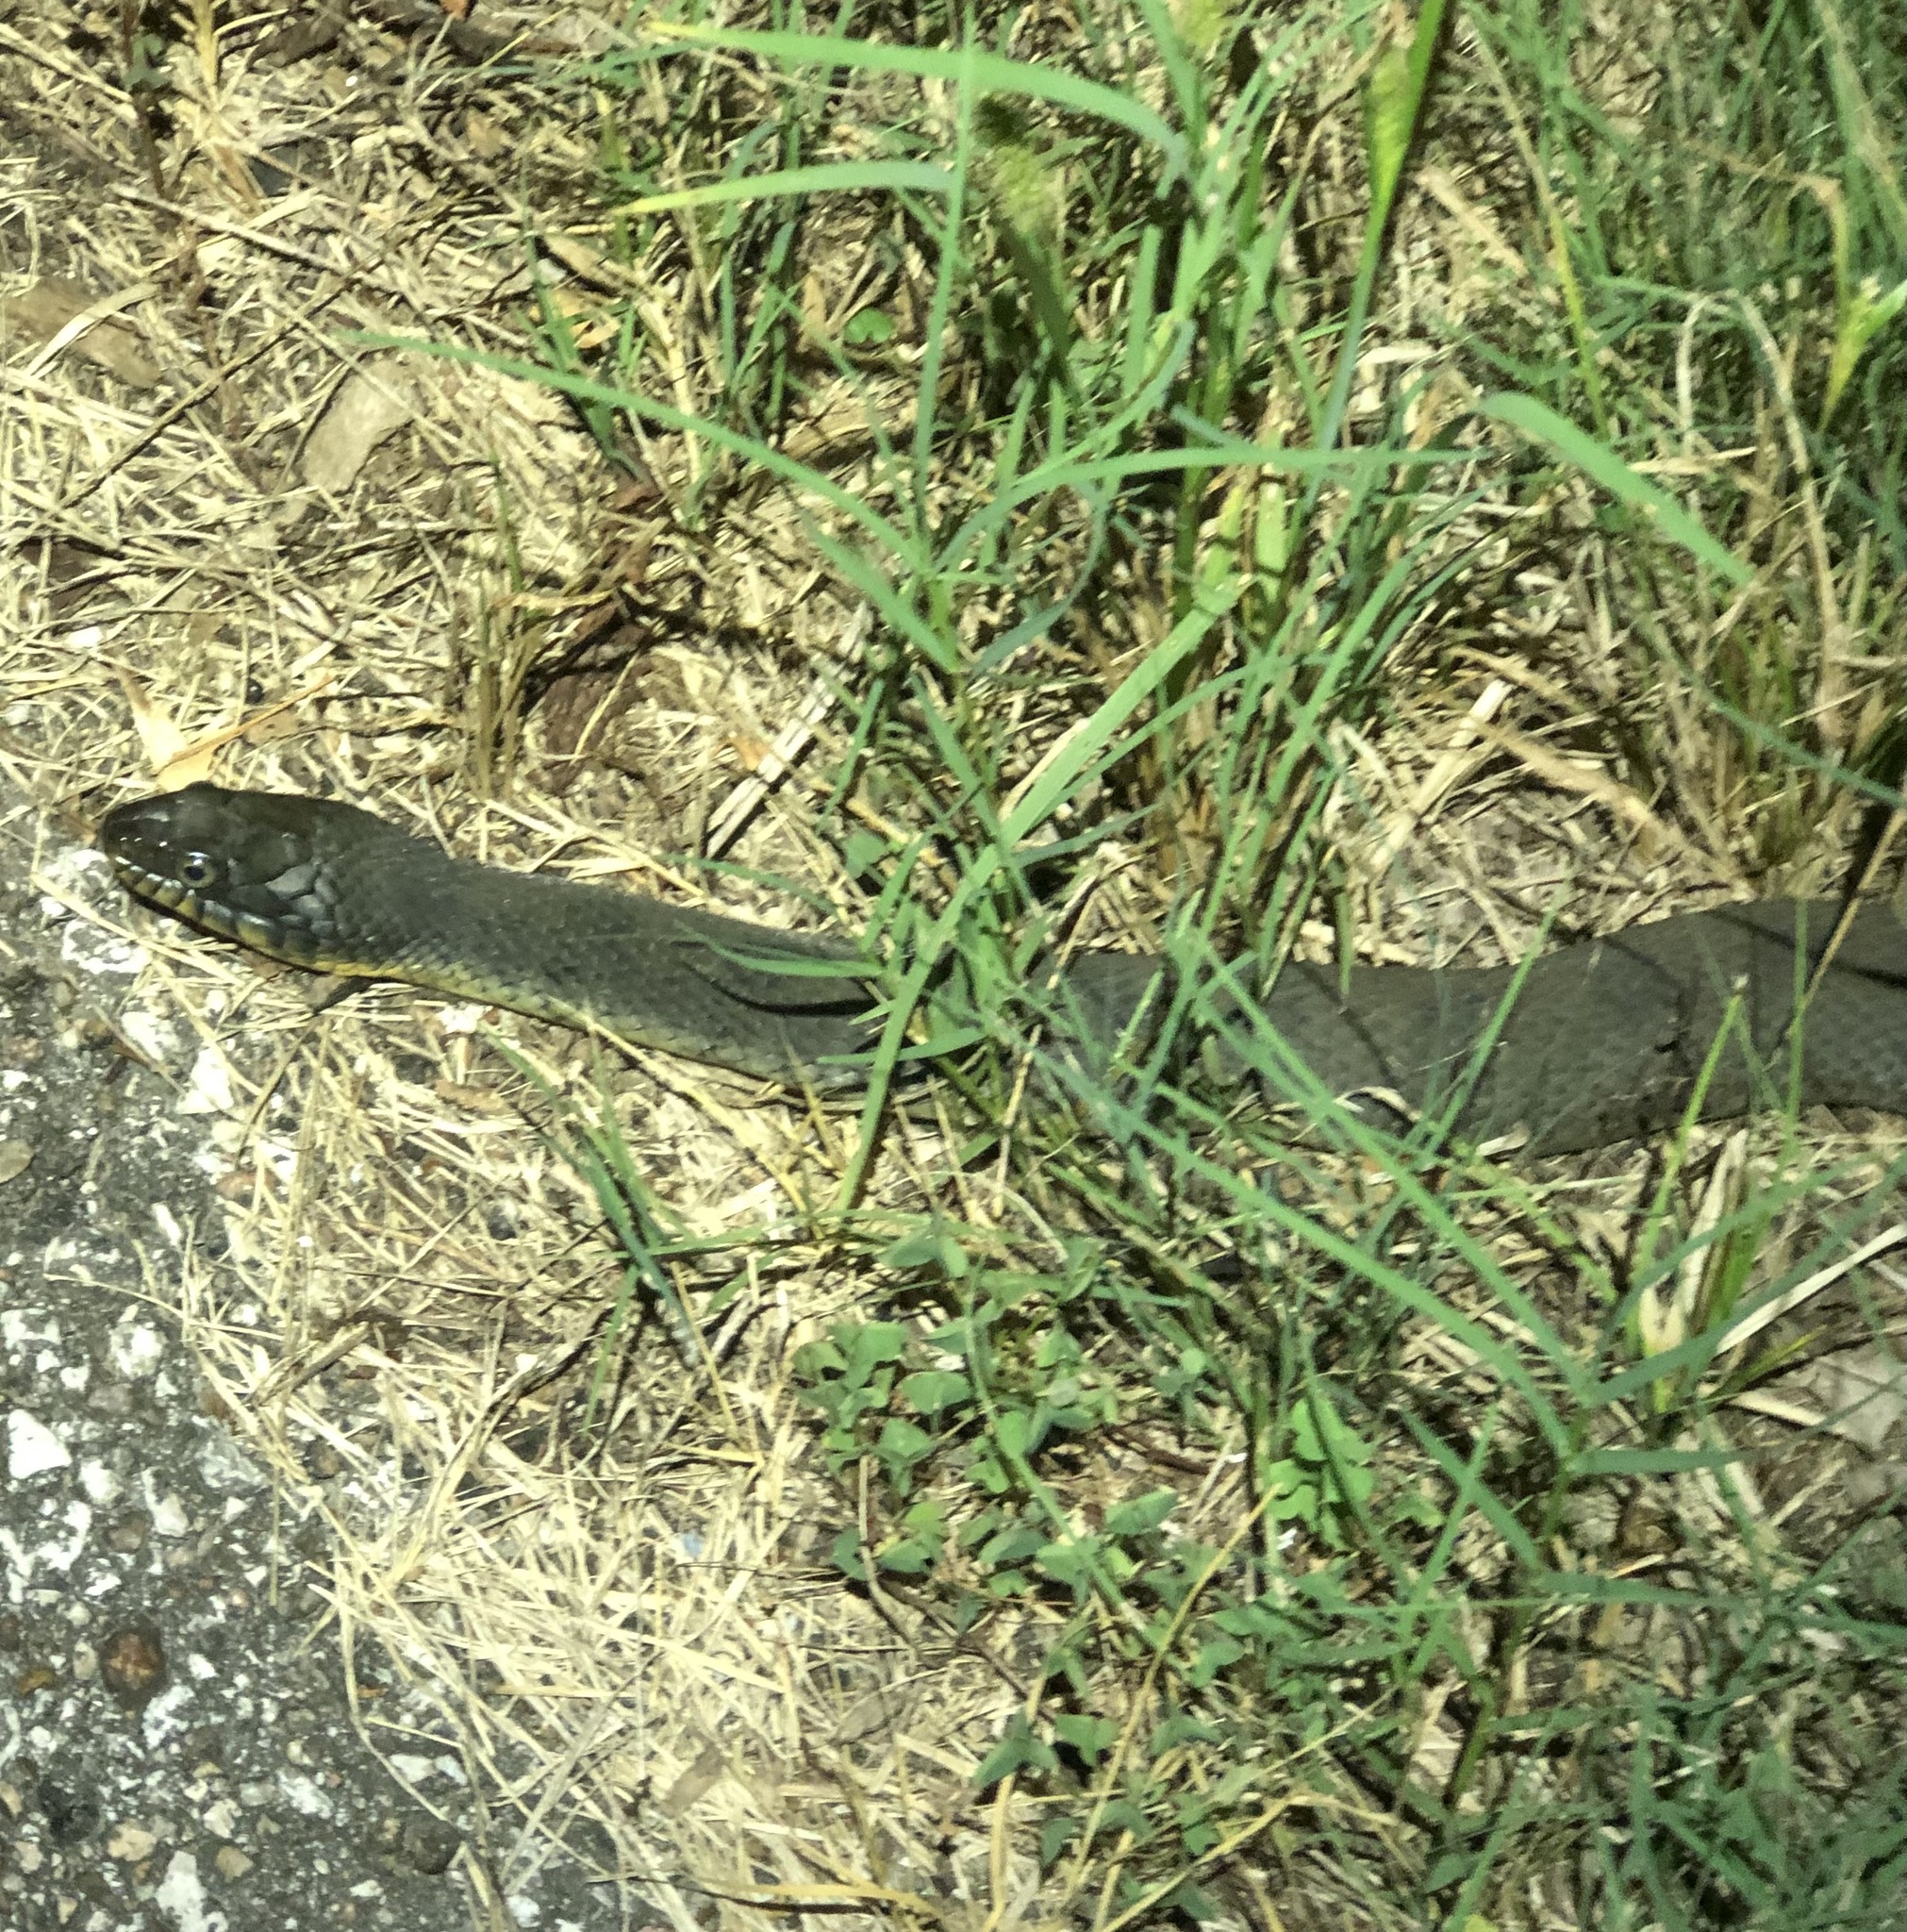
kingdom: Animalia
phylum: Chordata
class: Squamata
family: Colubridae
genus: Nerodia
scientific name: Nerodia erythrogaster
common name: Plainbelly water snake
